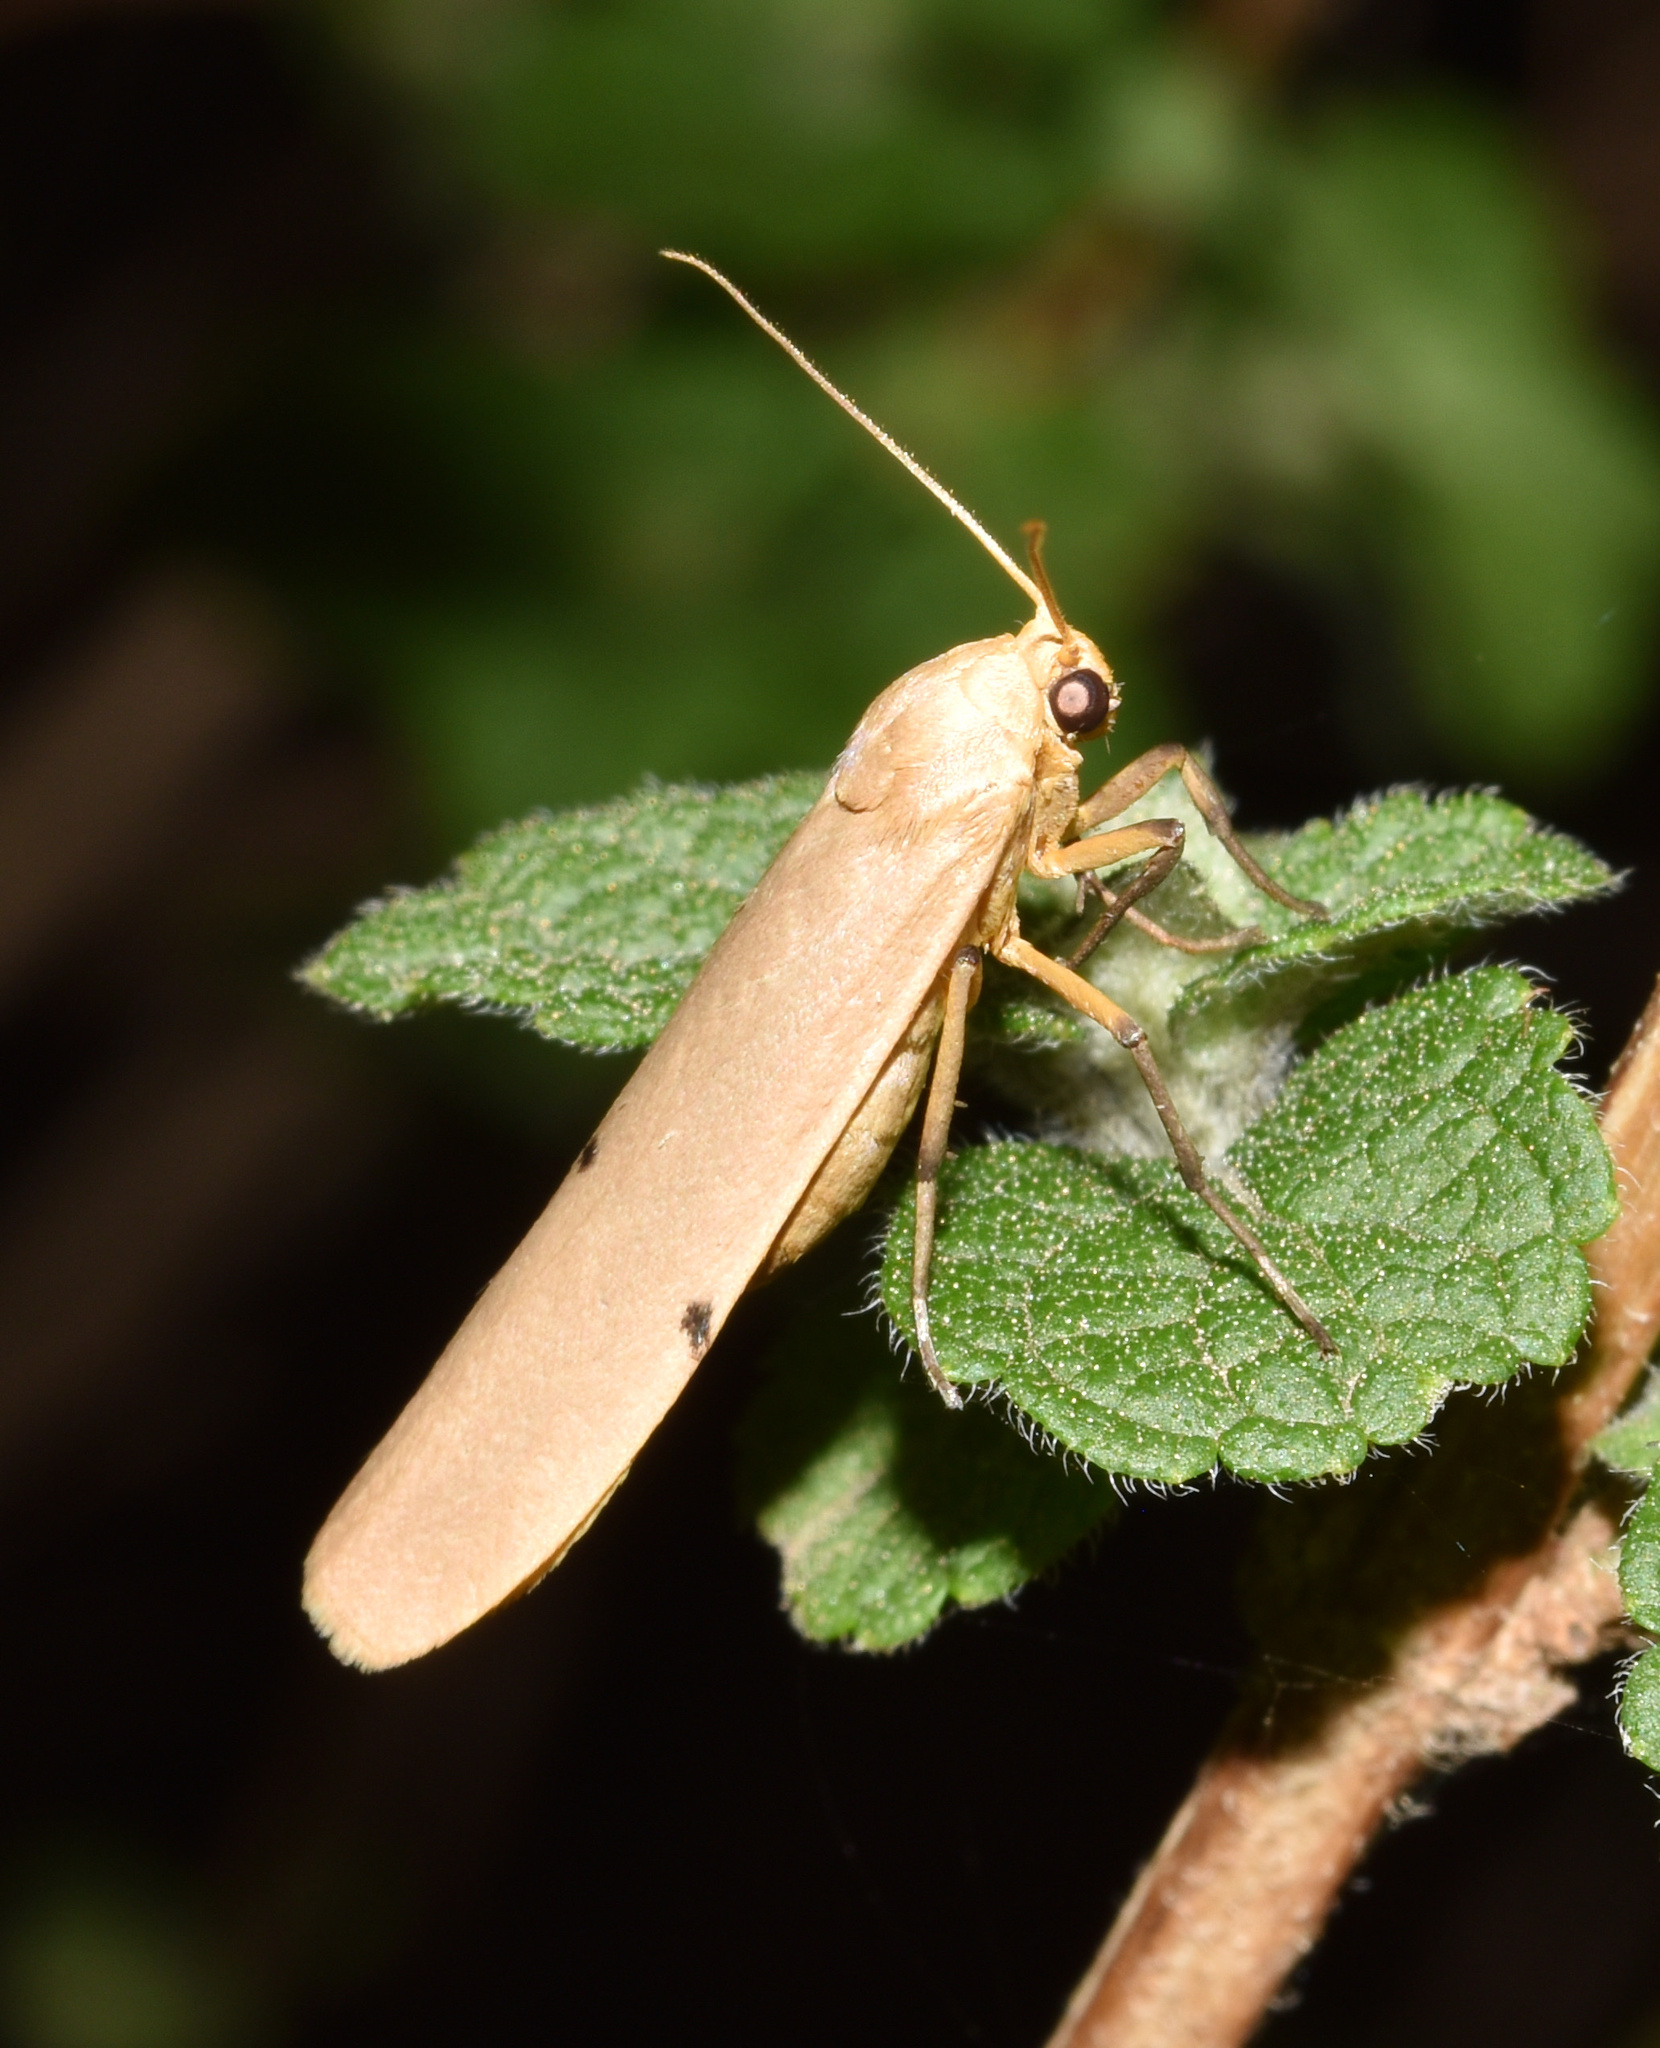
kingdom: Animalia
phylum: Arthropoda
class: Insecta
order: Lepidoptera
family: Erebidae
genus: Zobida
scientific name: Zobida similipuncta
